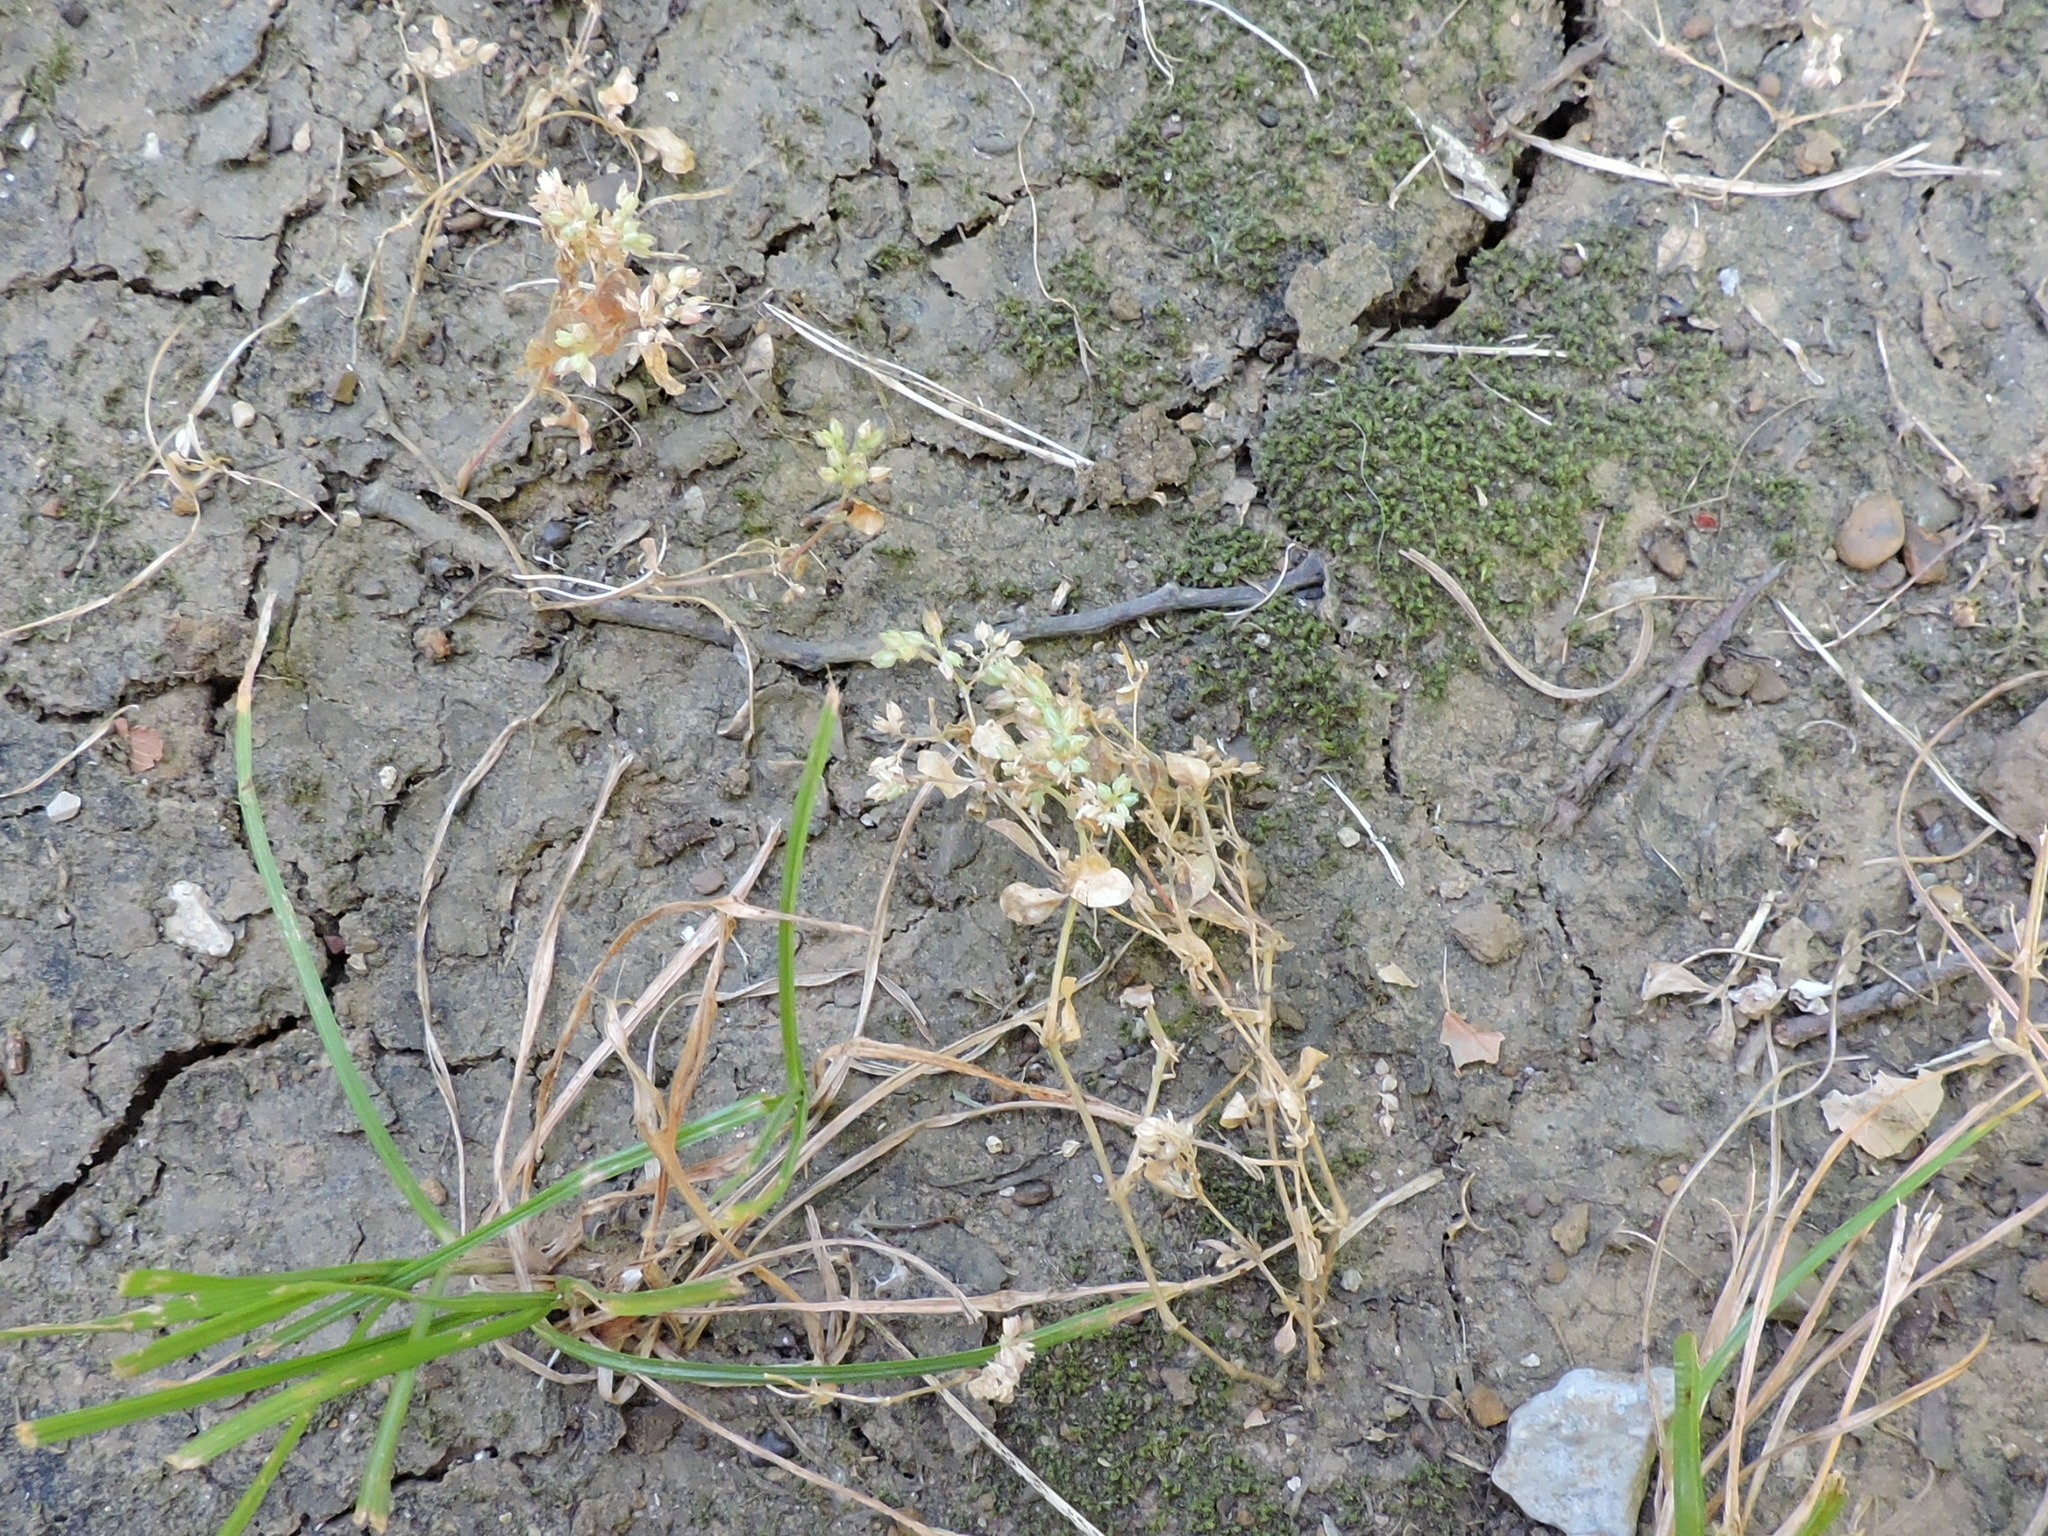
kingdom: Plantae
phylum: Tracheophyta
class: Magnoliopsida
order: Caryophyllales
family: Caryophyllaceae
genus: Polycarpon
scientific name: Polycarpon tetraphyllum
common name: Four-leaved all-seed
